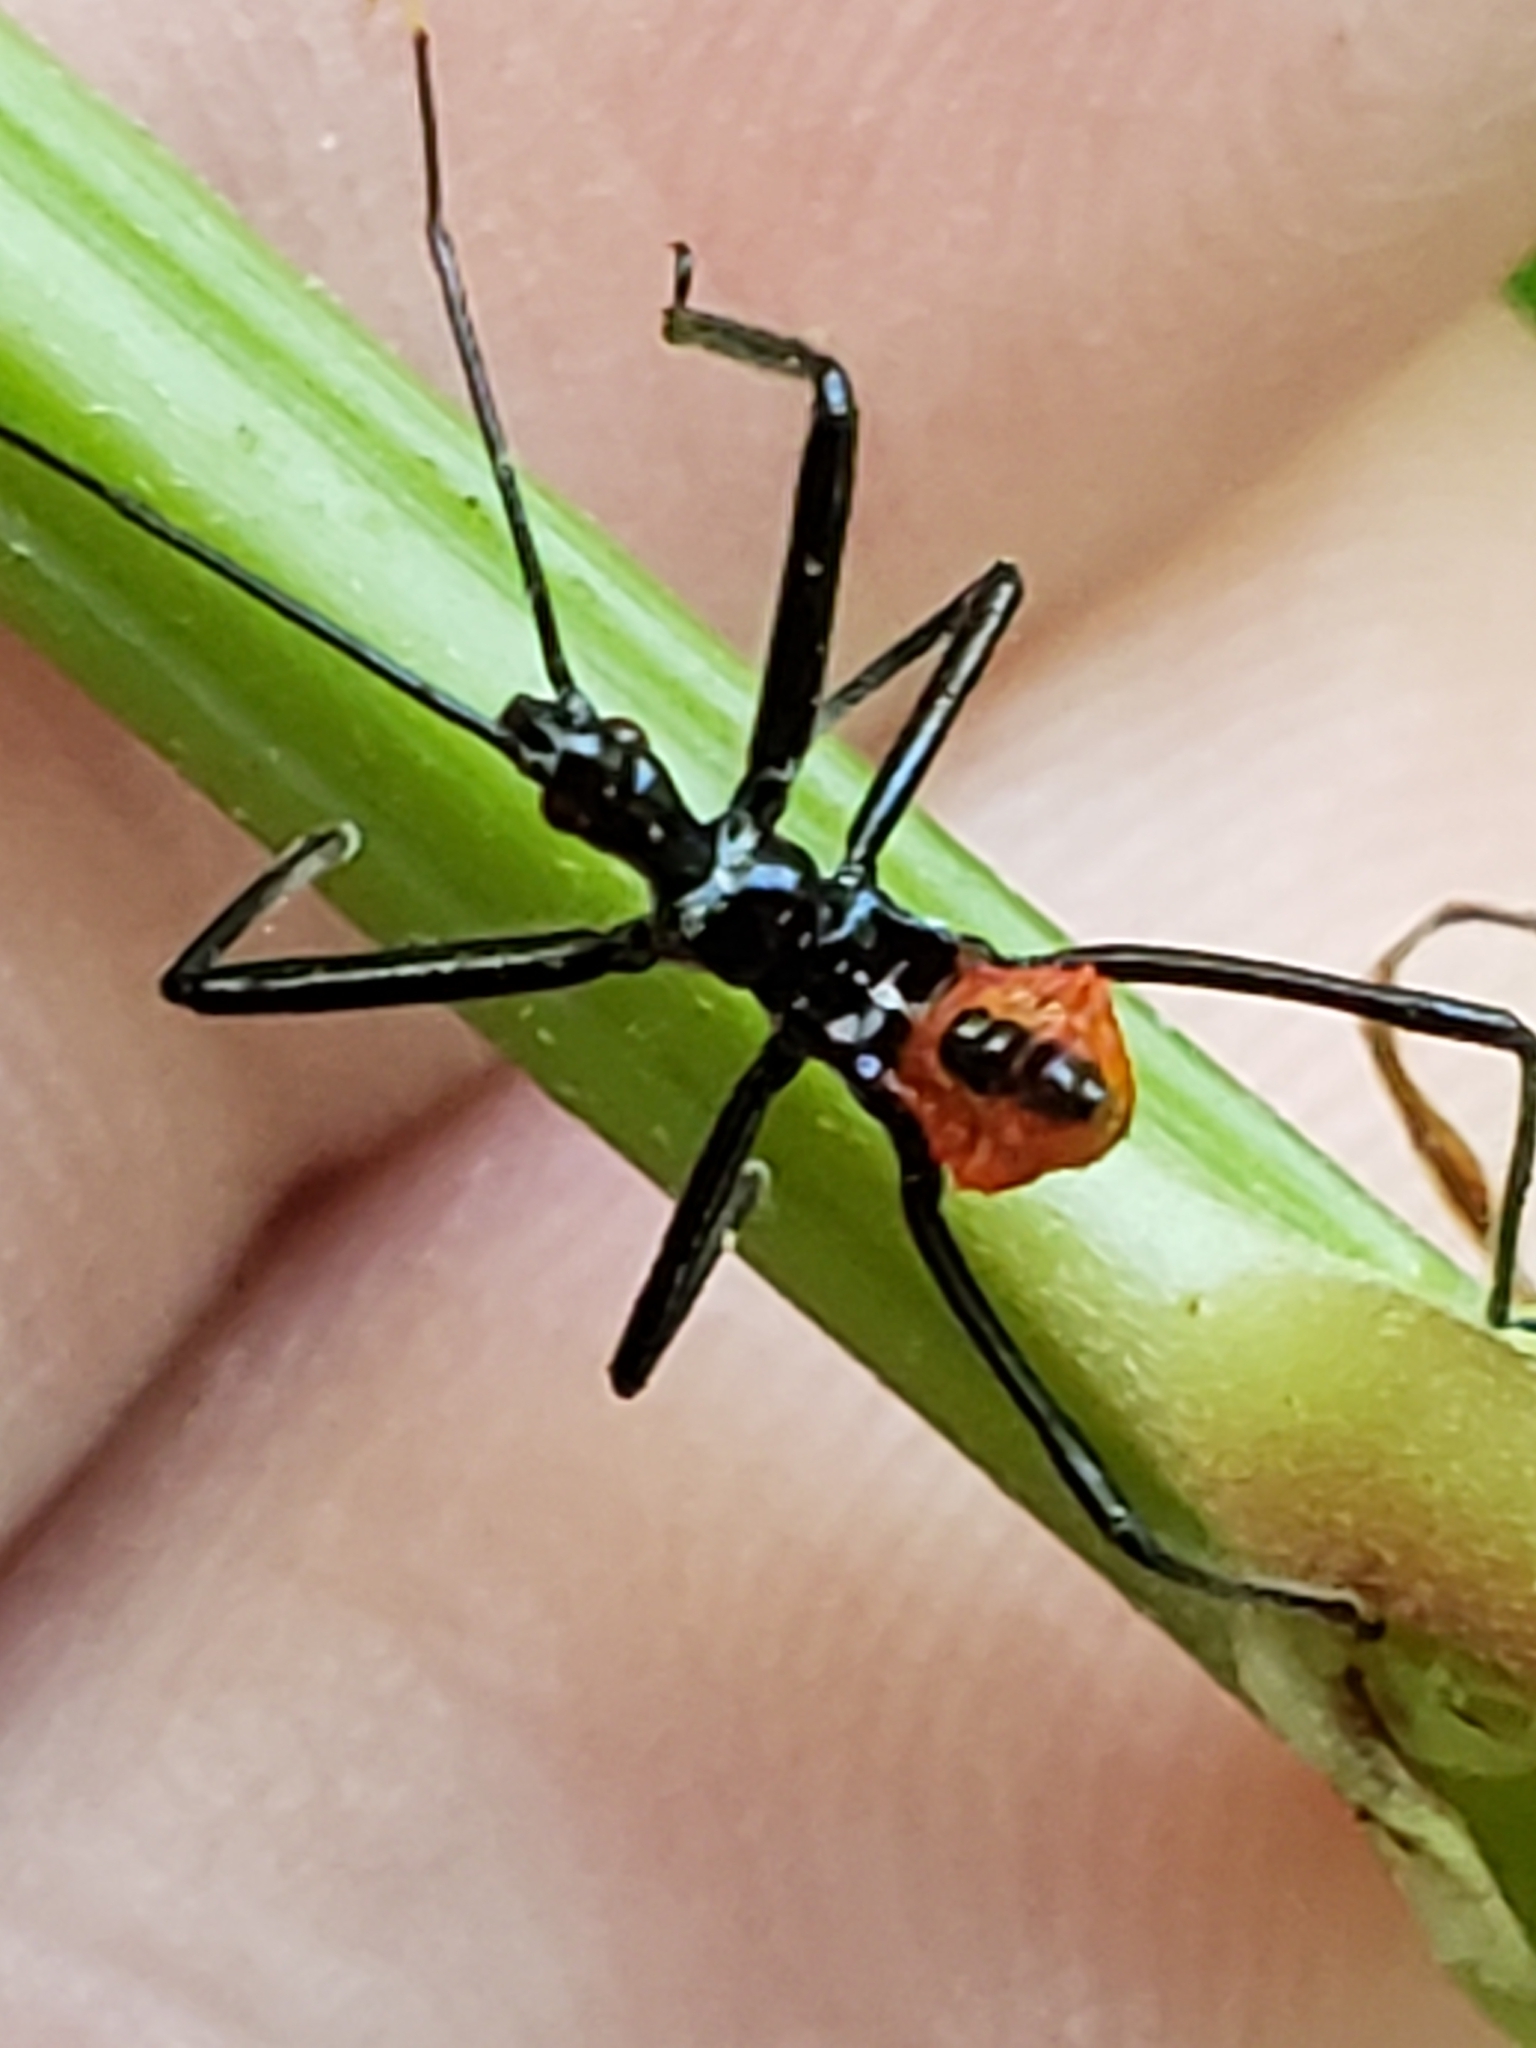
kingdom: Animalia
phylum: Arthropoda
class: Insecta
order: Hemiptera
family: Reduviidae
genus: Arilus
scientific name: Arilus cristatus
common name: North american wheel bug
